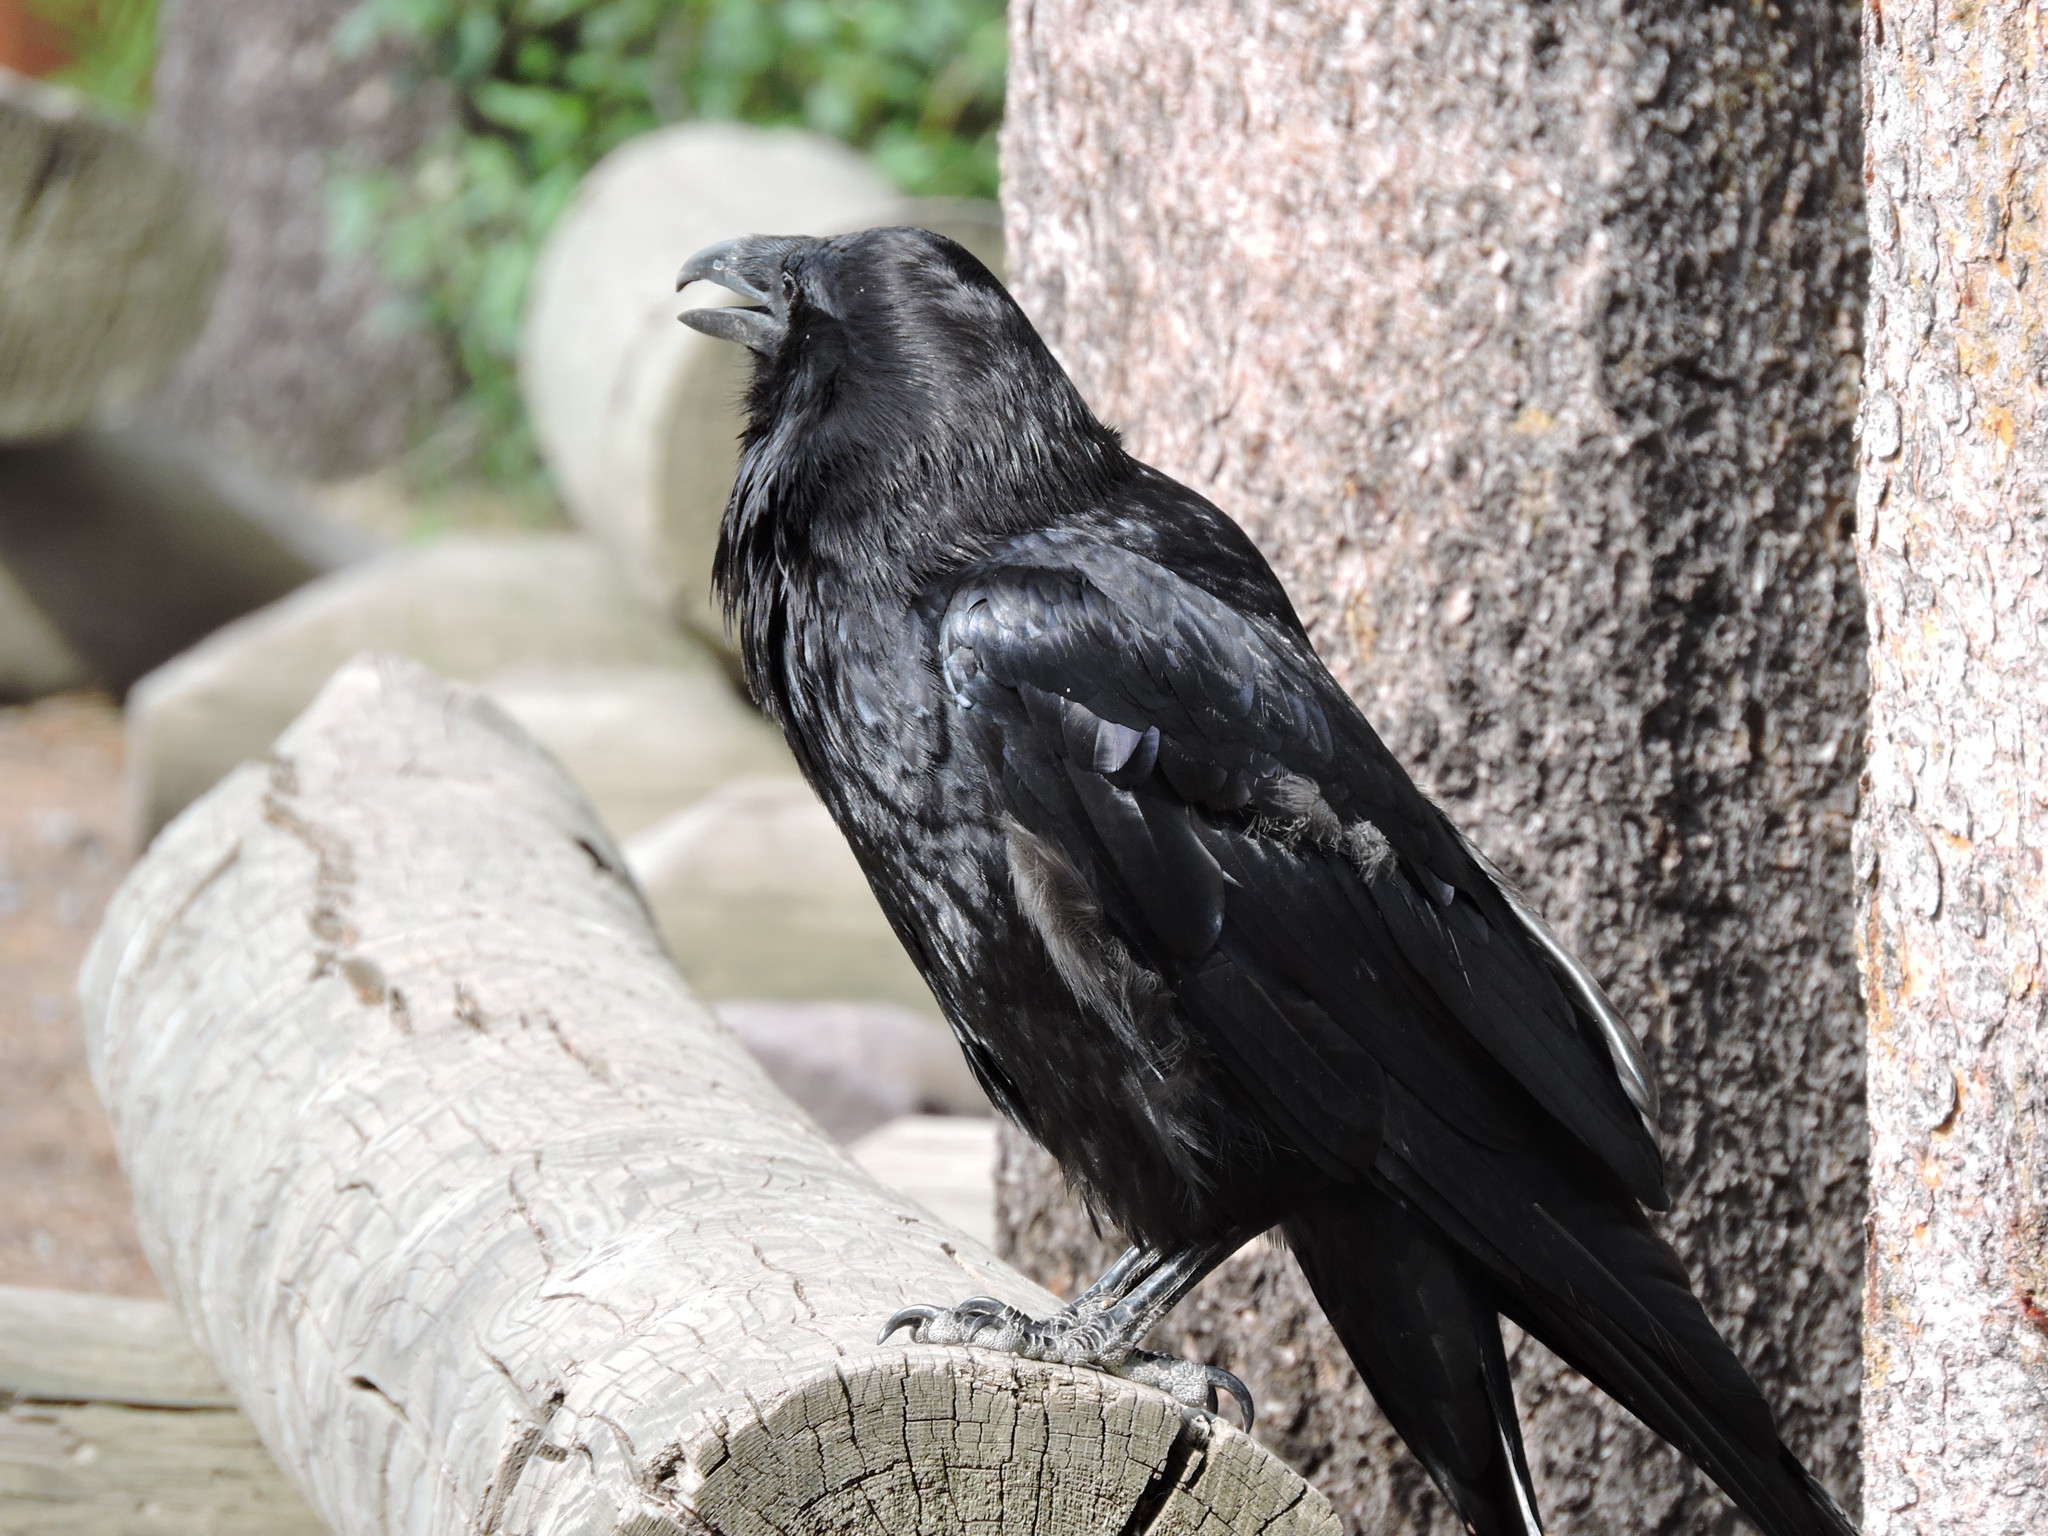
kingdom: Animalia
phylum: Chordata
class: Aves
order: Passeriformes
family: Corvidae
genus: Corvus
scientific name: Corvus corax
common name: Common raven
